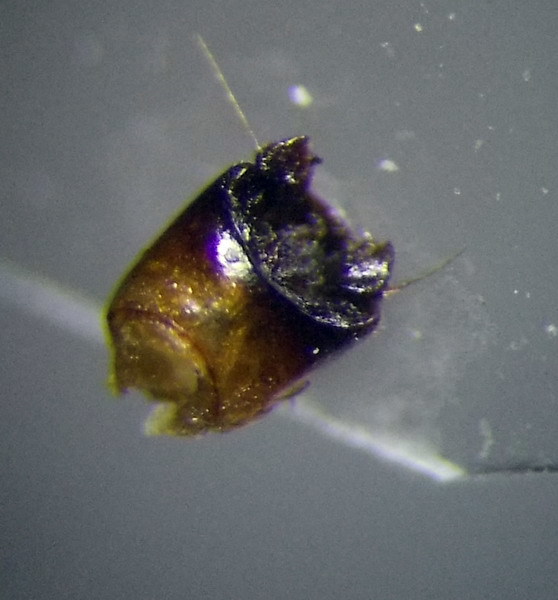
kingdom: Animalia
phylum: Arthropoda
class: Insecta
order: Hemiptera
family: Cydnidae
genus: Byrsinus
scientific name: Byrsinus rugosus
